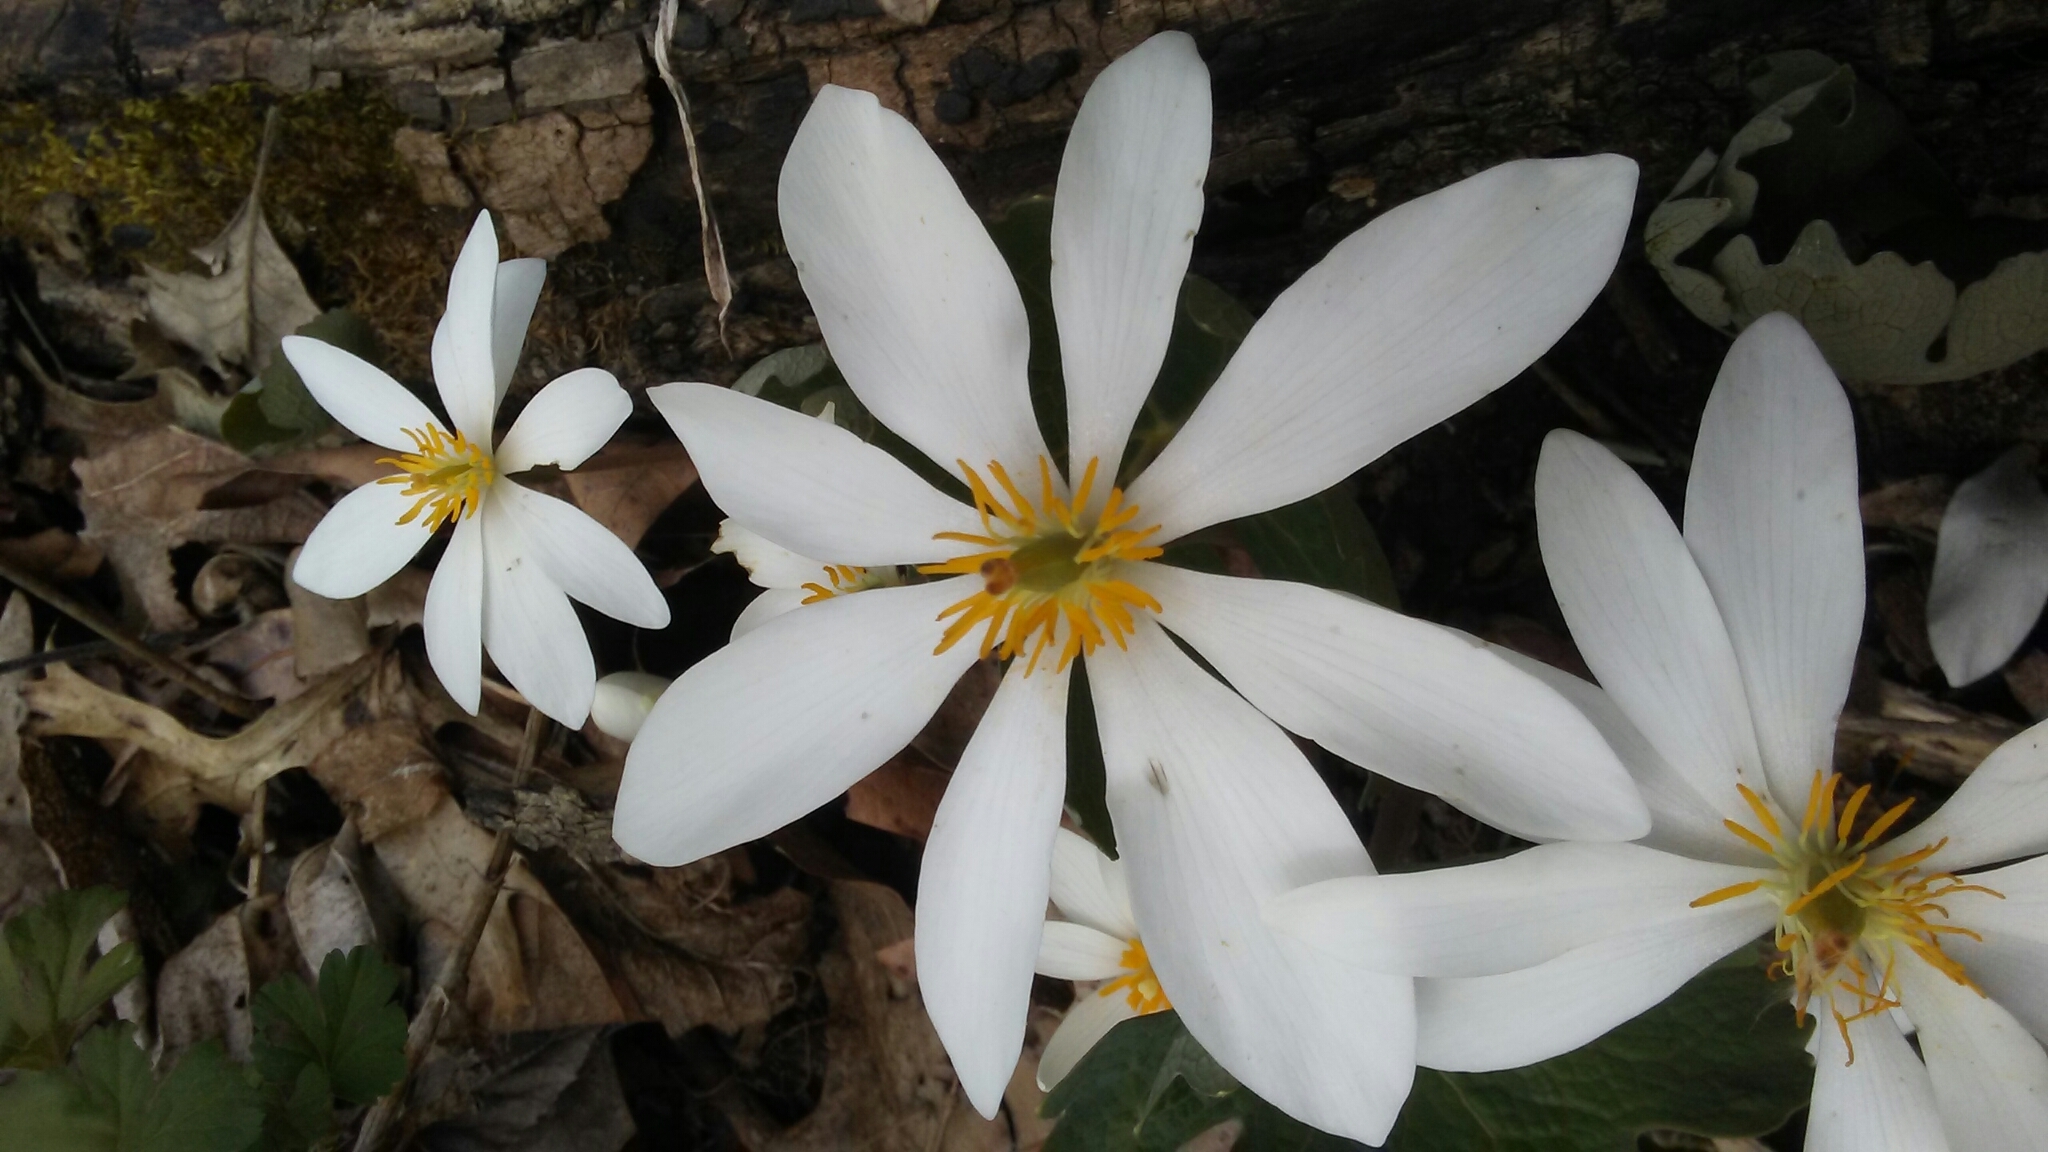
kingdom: Plantae
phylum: Tracheophyta
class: Magnoliopsida
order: Ranunculales
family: Papaveraceae
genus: Sanguinaria
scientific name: Sanguinaria canadensis
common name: Bloodroot
